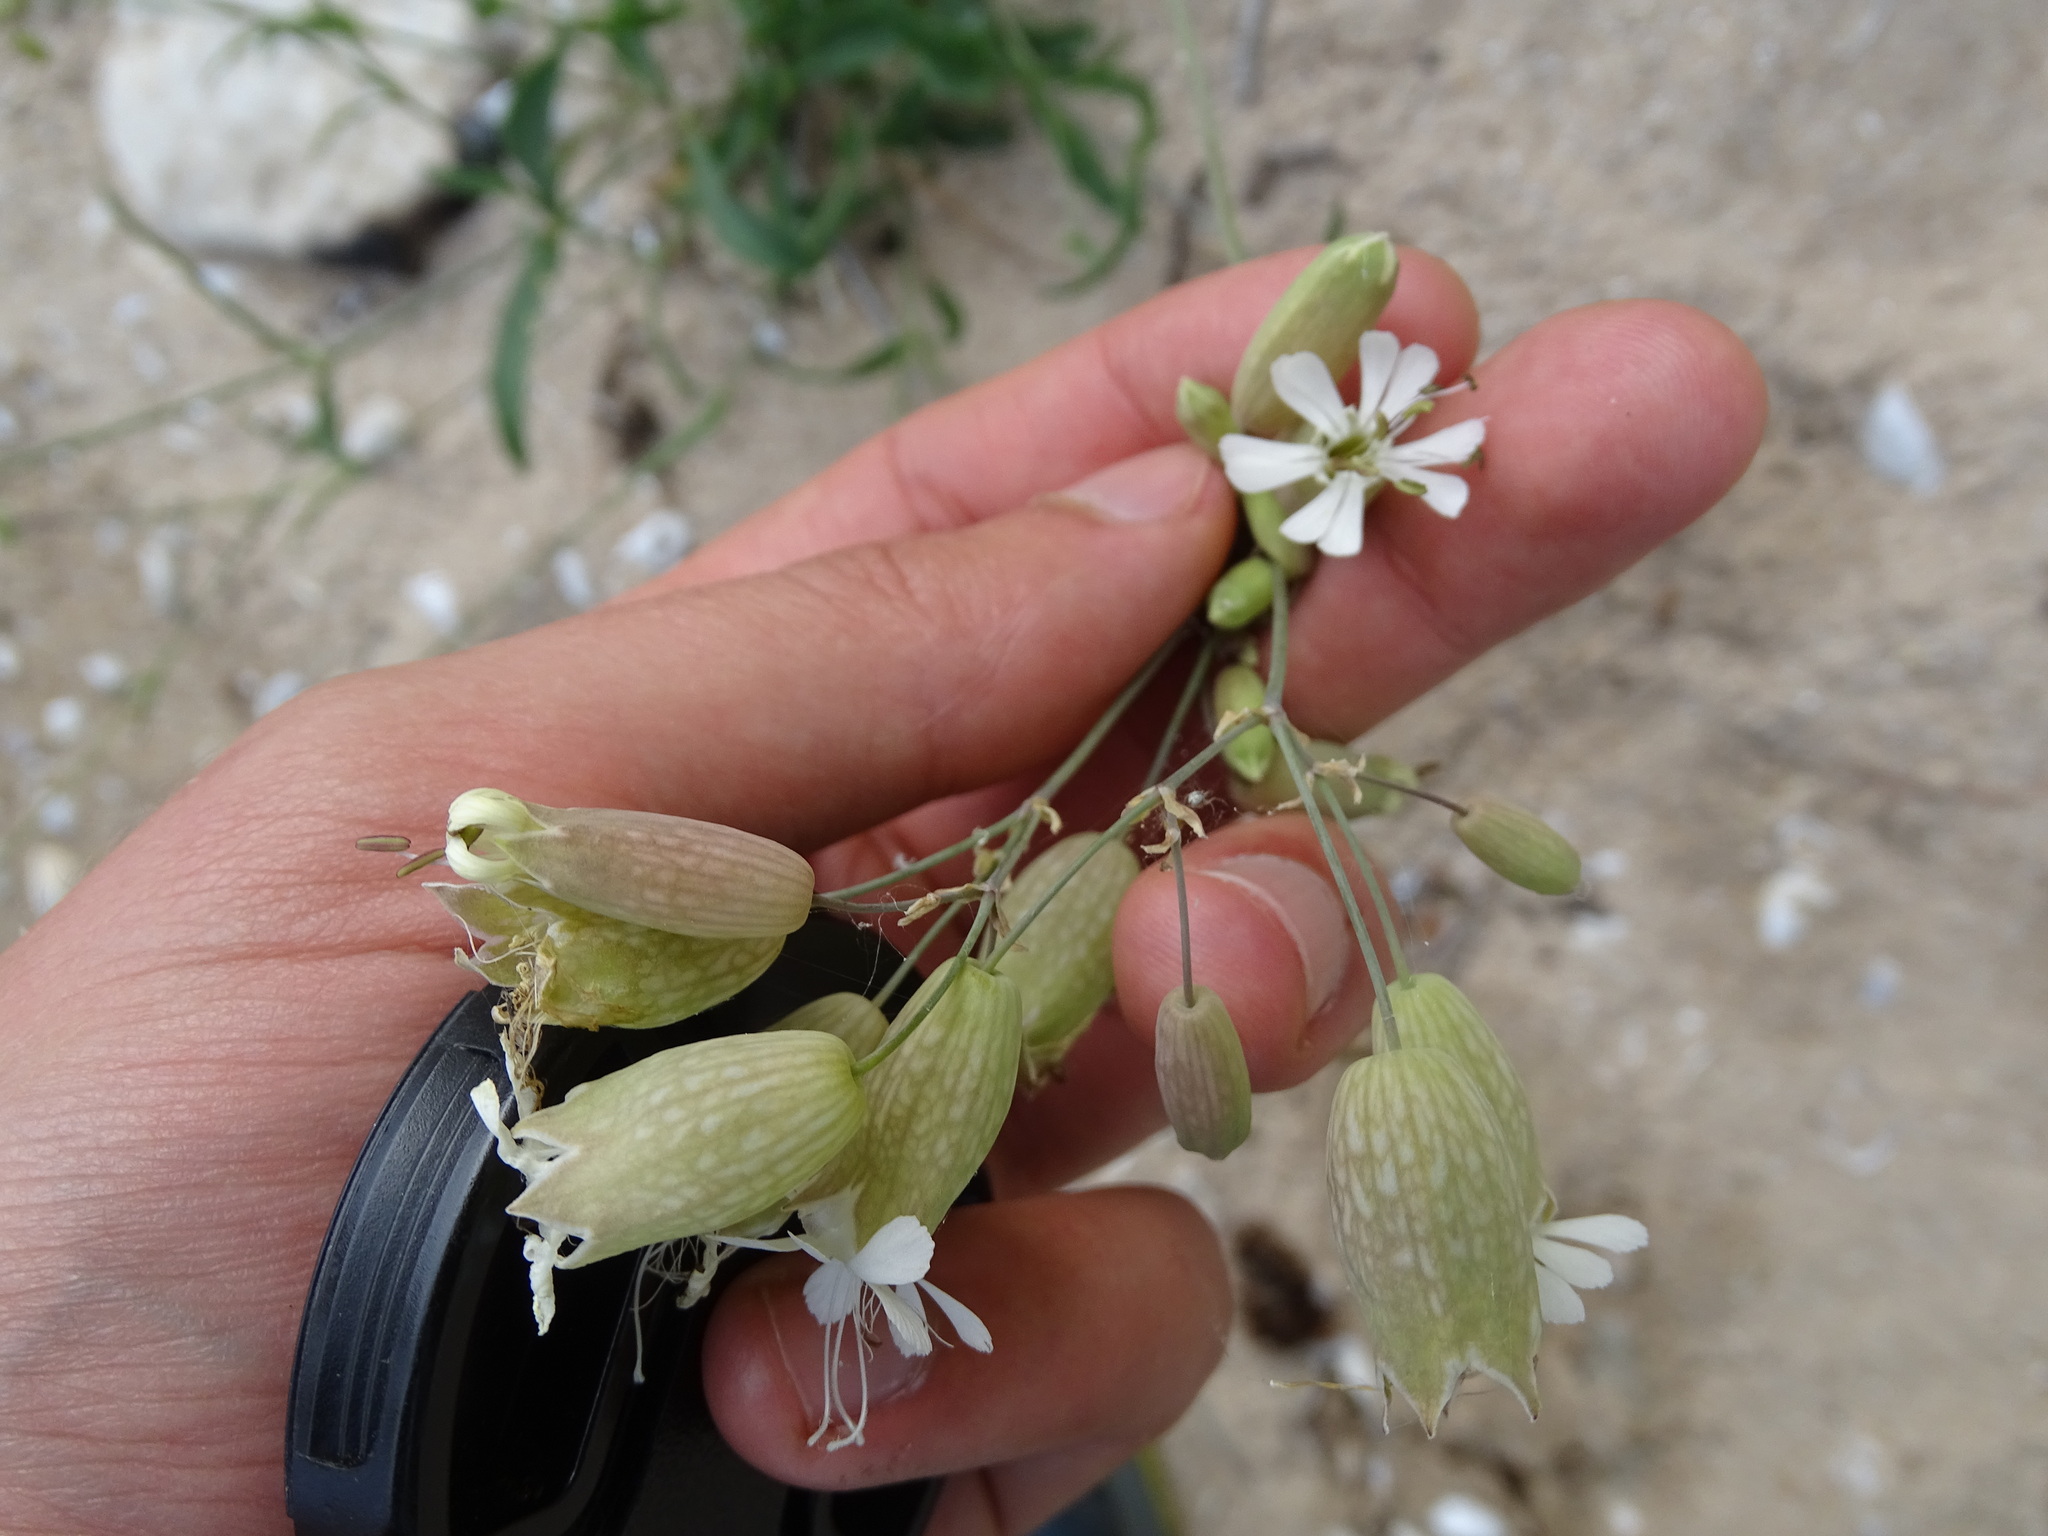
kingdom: Plantae
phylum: Tracheophyta
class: Magnoliopsida
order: Caryophyllales
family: Caryophyllaceae
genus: Silene
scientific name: Silene vulgaris
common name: Bladder campion
